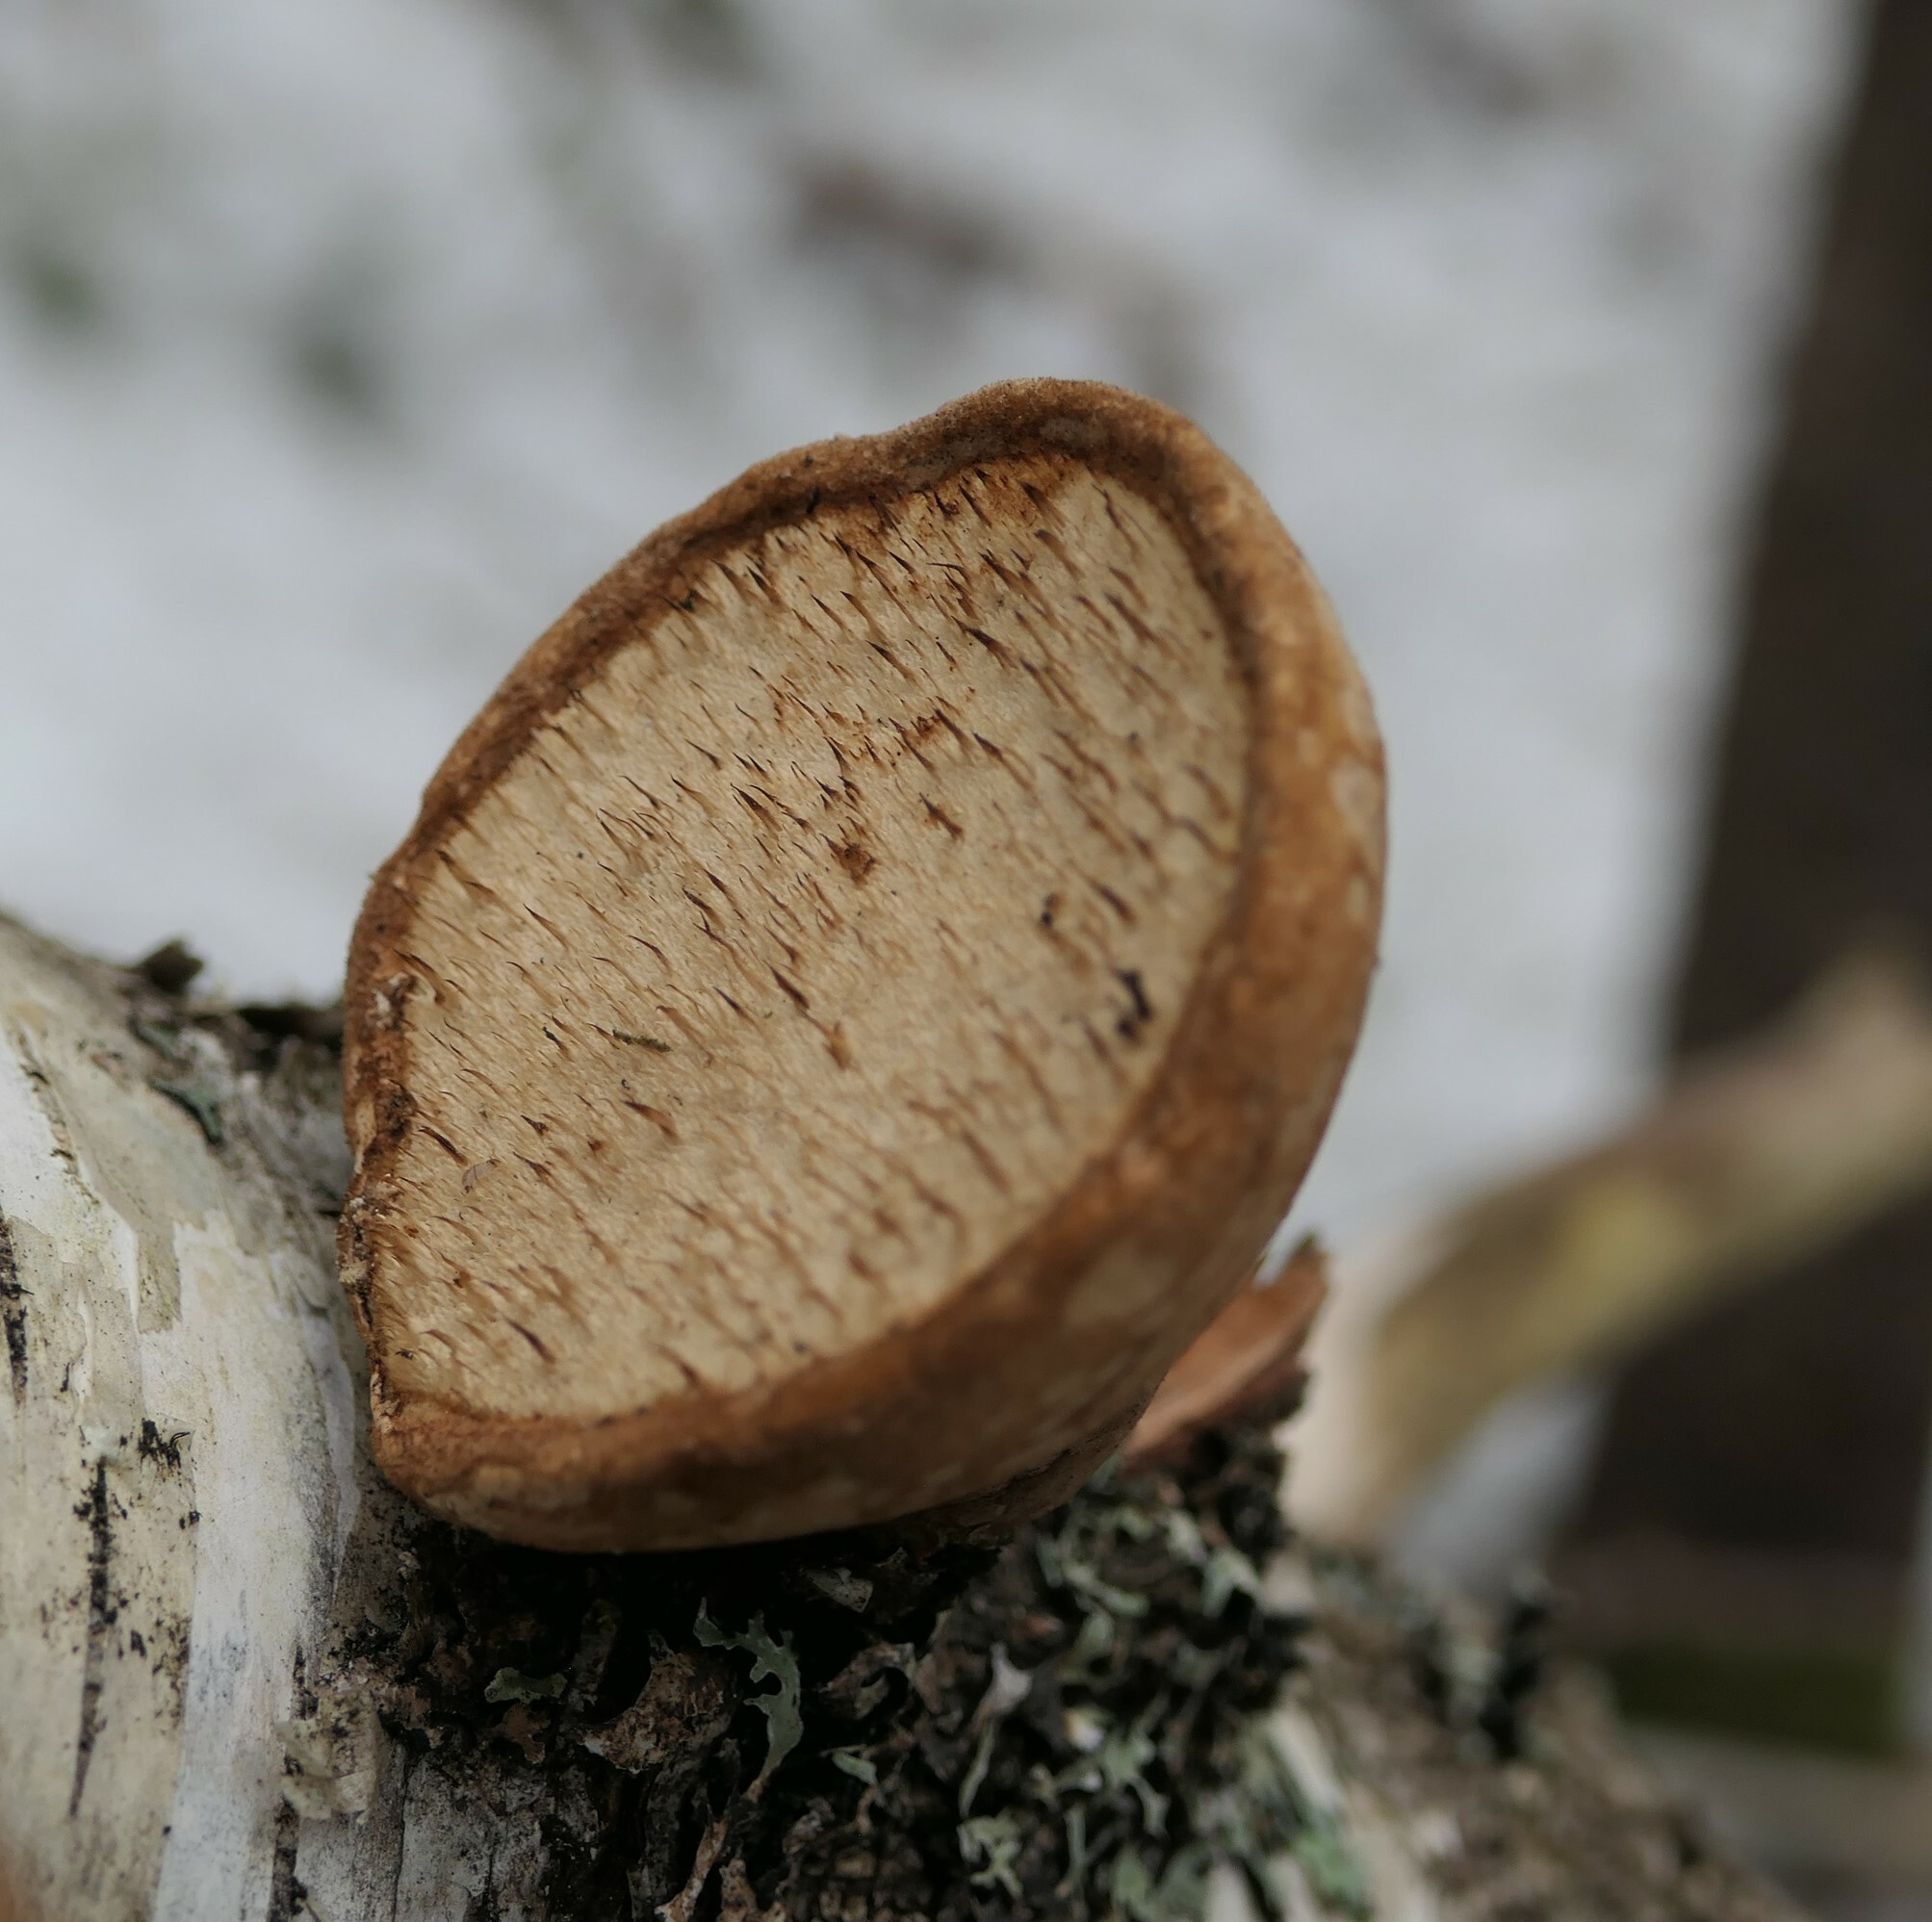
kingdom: Fungi
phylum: Basidiomycota
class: Agaricomycetes
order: Polyporales
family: Fomitopsidaceae
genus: Fomitopsis
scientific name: Fomitopsis betulina
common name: Birch polypore
